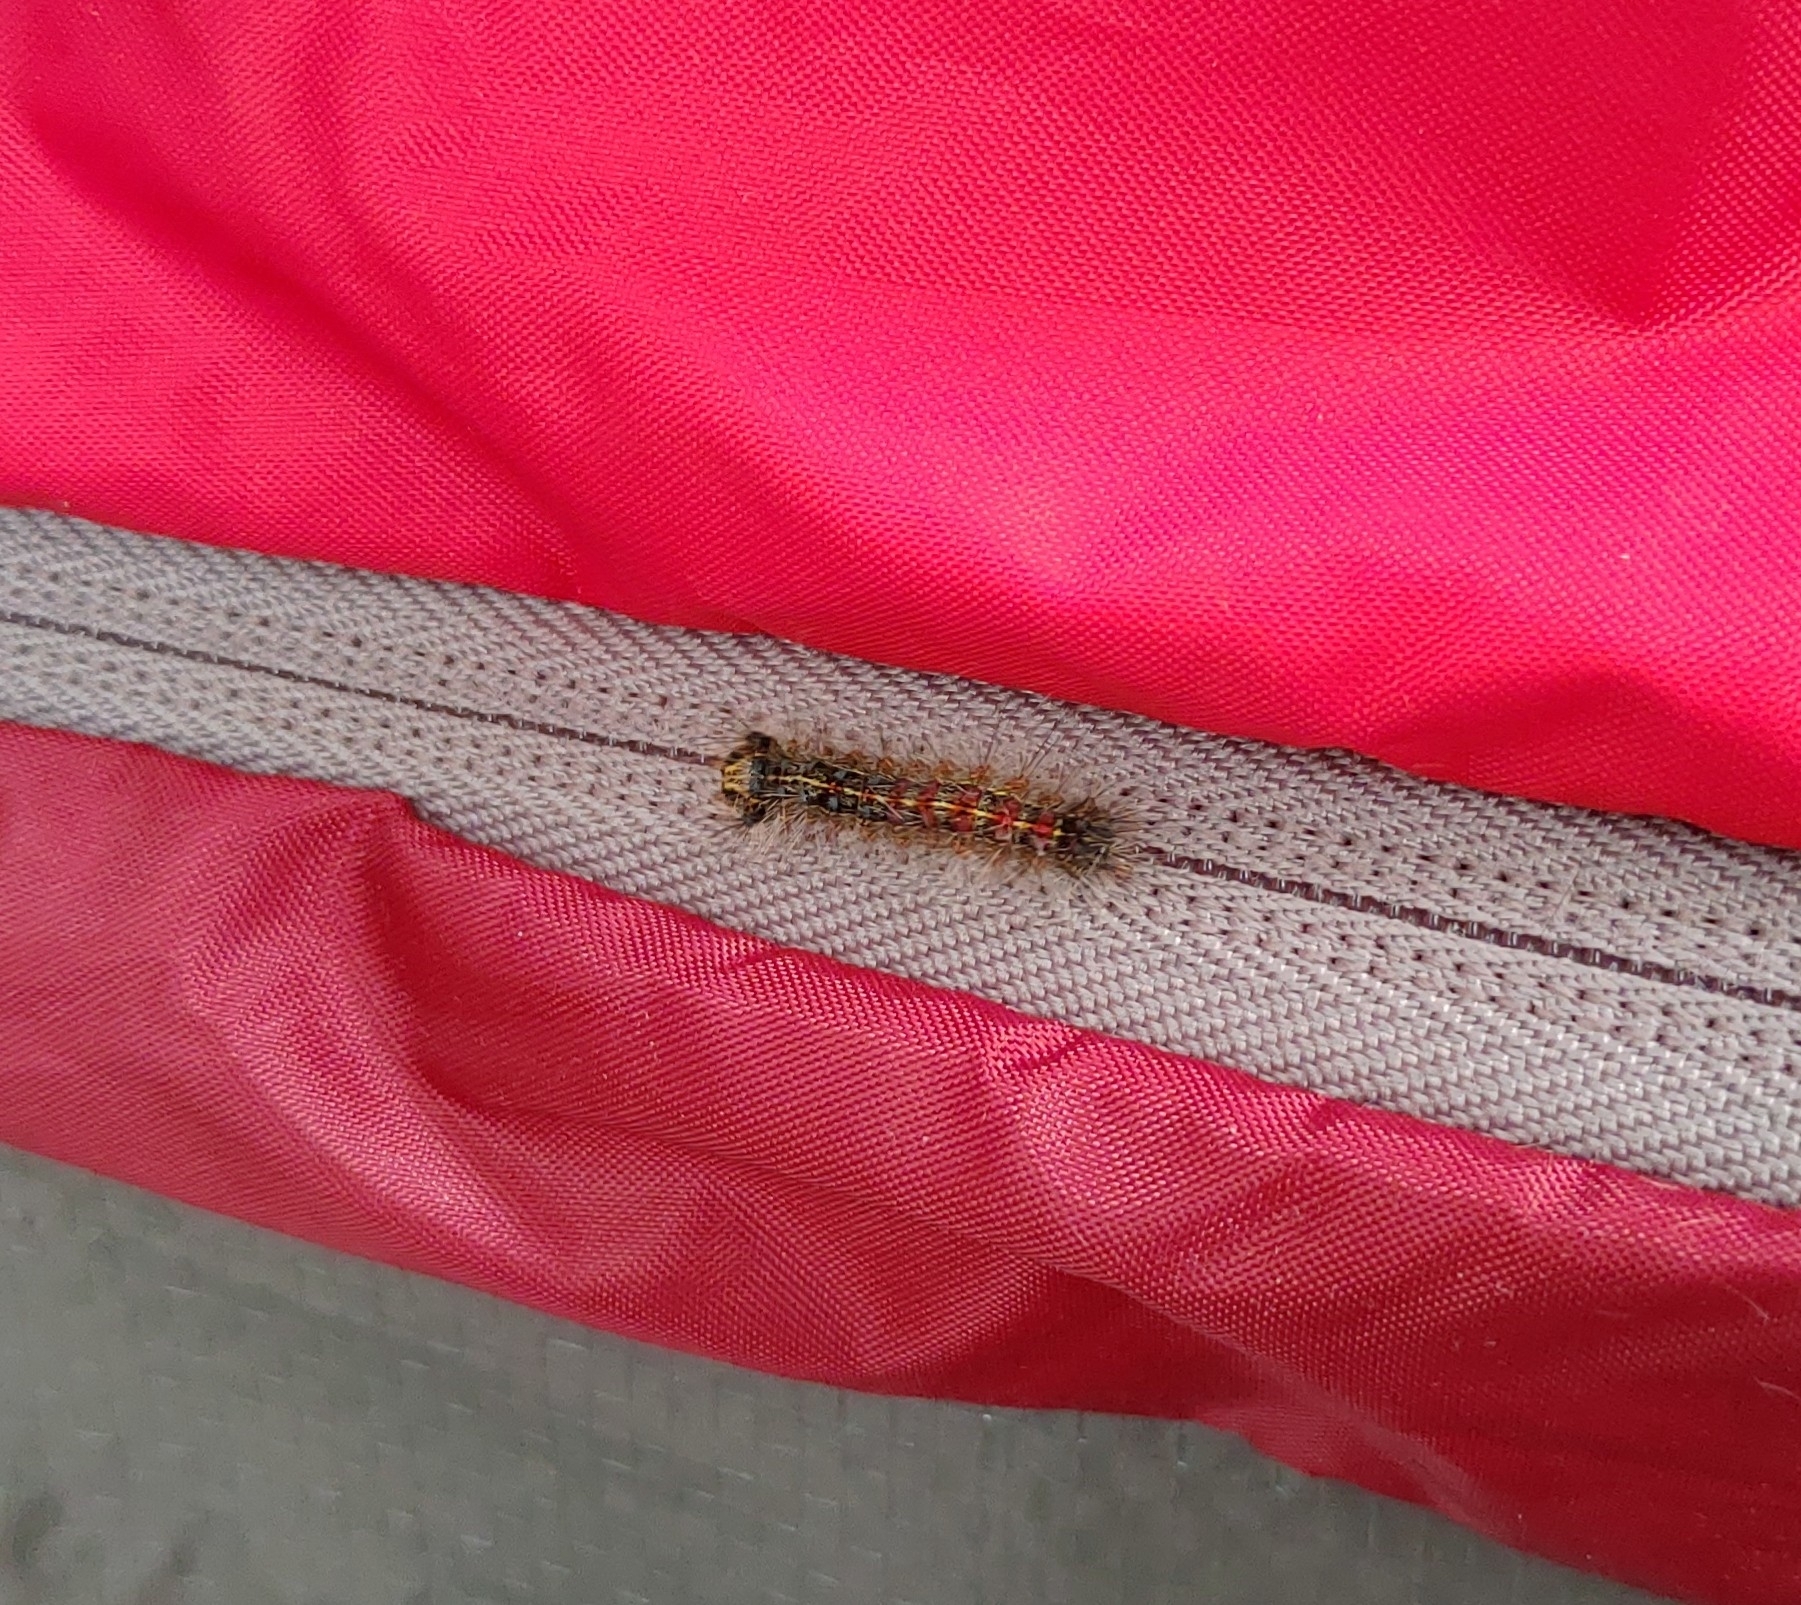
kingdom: Animalia
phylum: Arthropoda
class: Insecta
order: Lepidoptera
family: Erebidae
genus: Lymantria
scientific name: Lymantria dispar
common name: Gypsy moth
